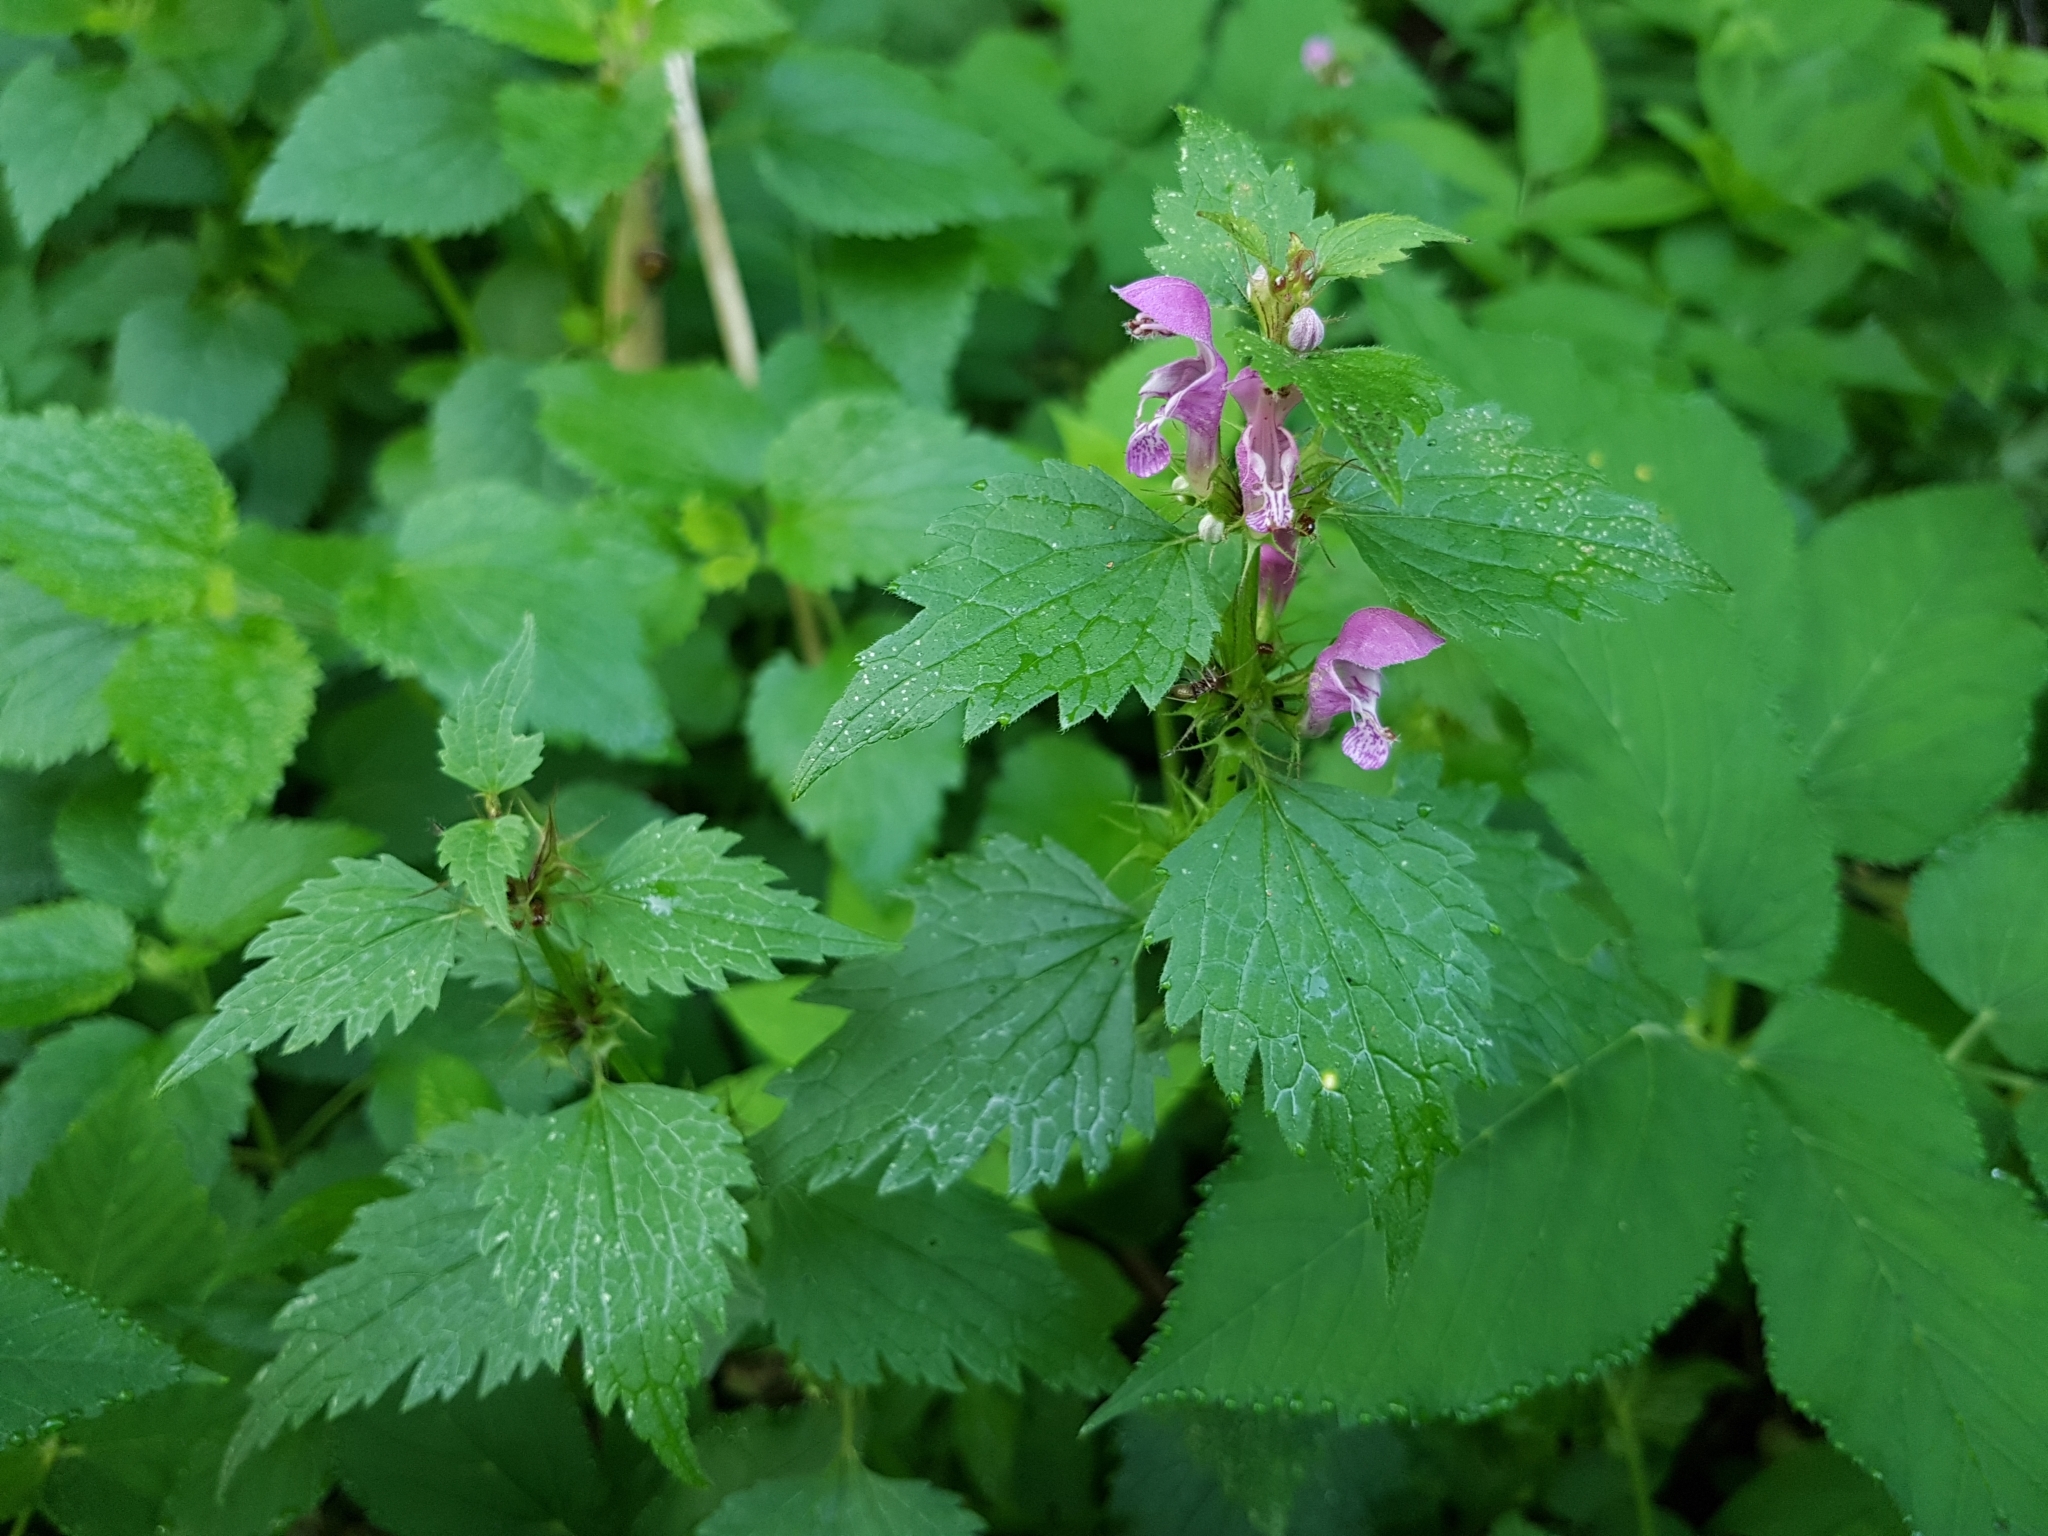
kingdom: Plantae
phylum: Tracheophyta
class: Magnoliopsida
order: Lamiales
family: Lamiaceae
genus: Lamium
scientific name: Lamium maculatum
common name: Spotted dead-nettle
